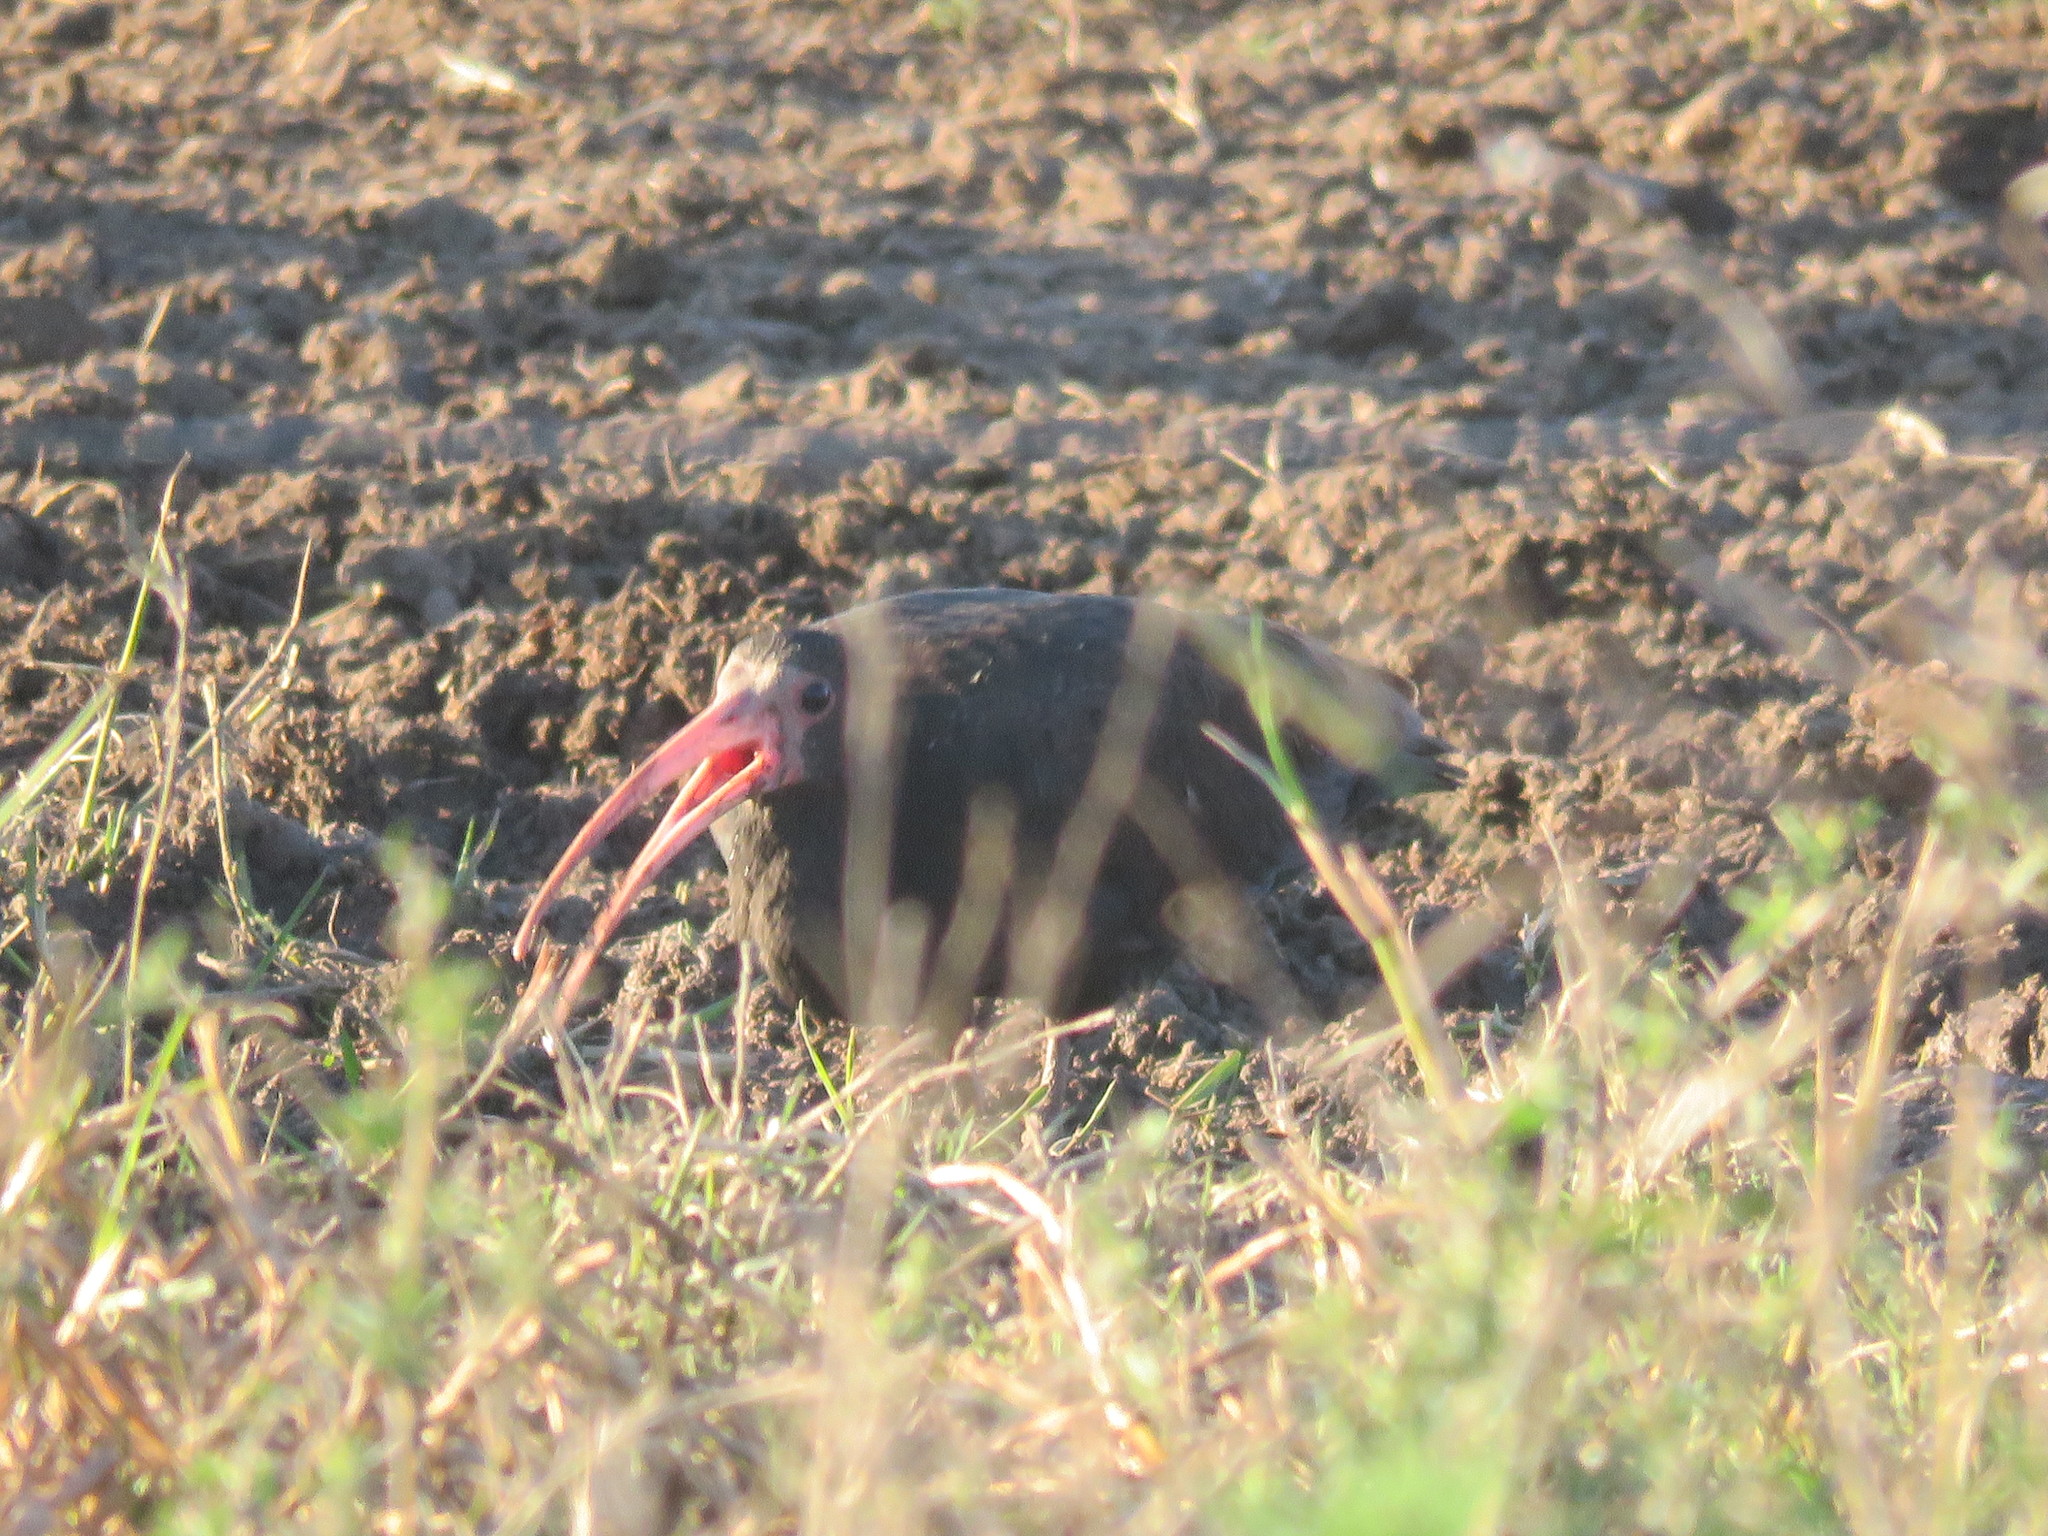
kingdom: Animalia
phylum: Chordata
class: Aves
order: Pelecaniformes
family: Threskiornithidae
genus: Phimosus
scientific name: Phimosus infuscatus
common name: Bare-faced ibis
